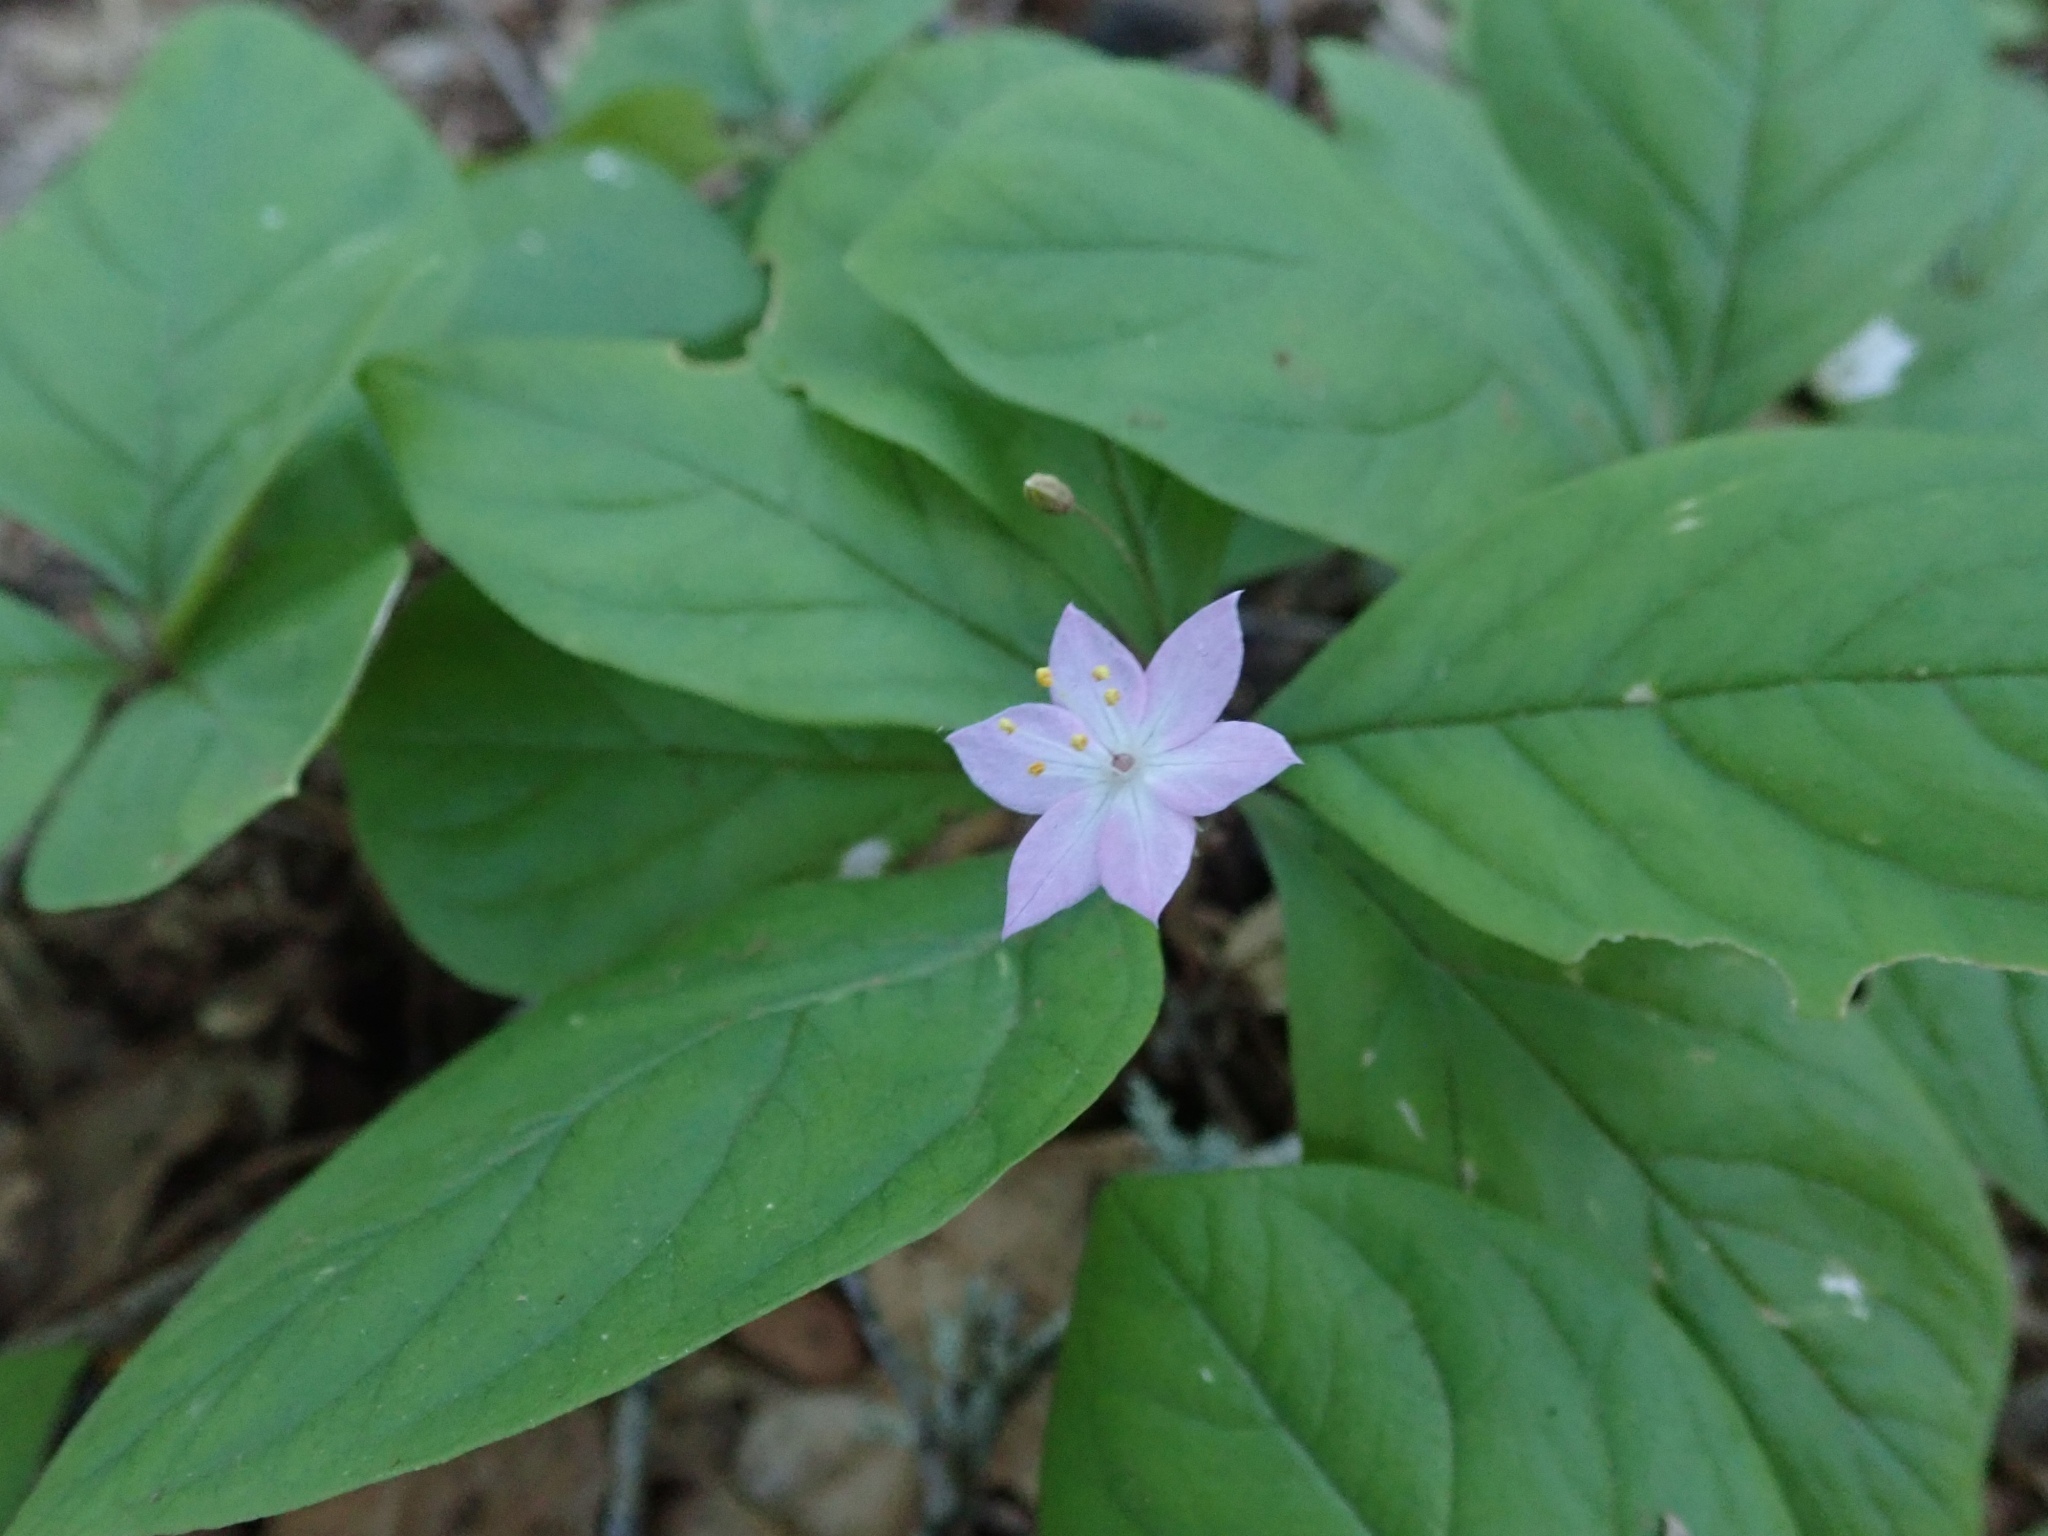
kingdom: Plantae
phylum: Tracheophyta
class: Magnoliopsida
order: Ericales
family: Primulaceae
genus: Lysimachia
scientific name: Lysimachia latifolia
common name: Pacific starflower
